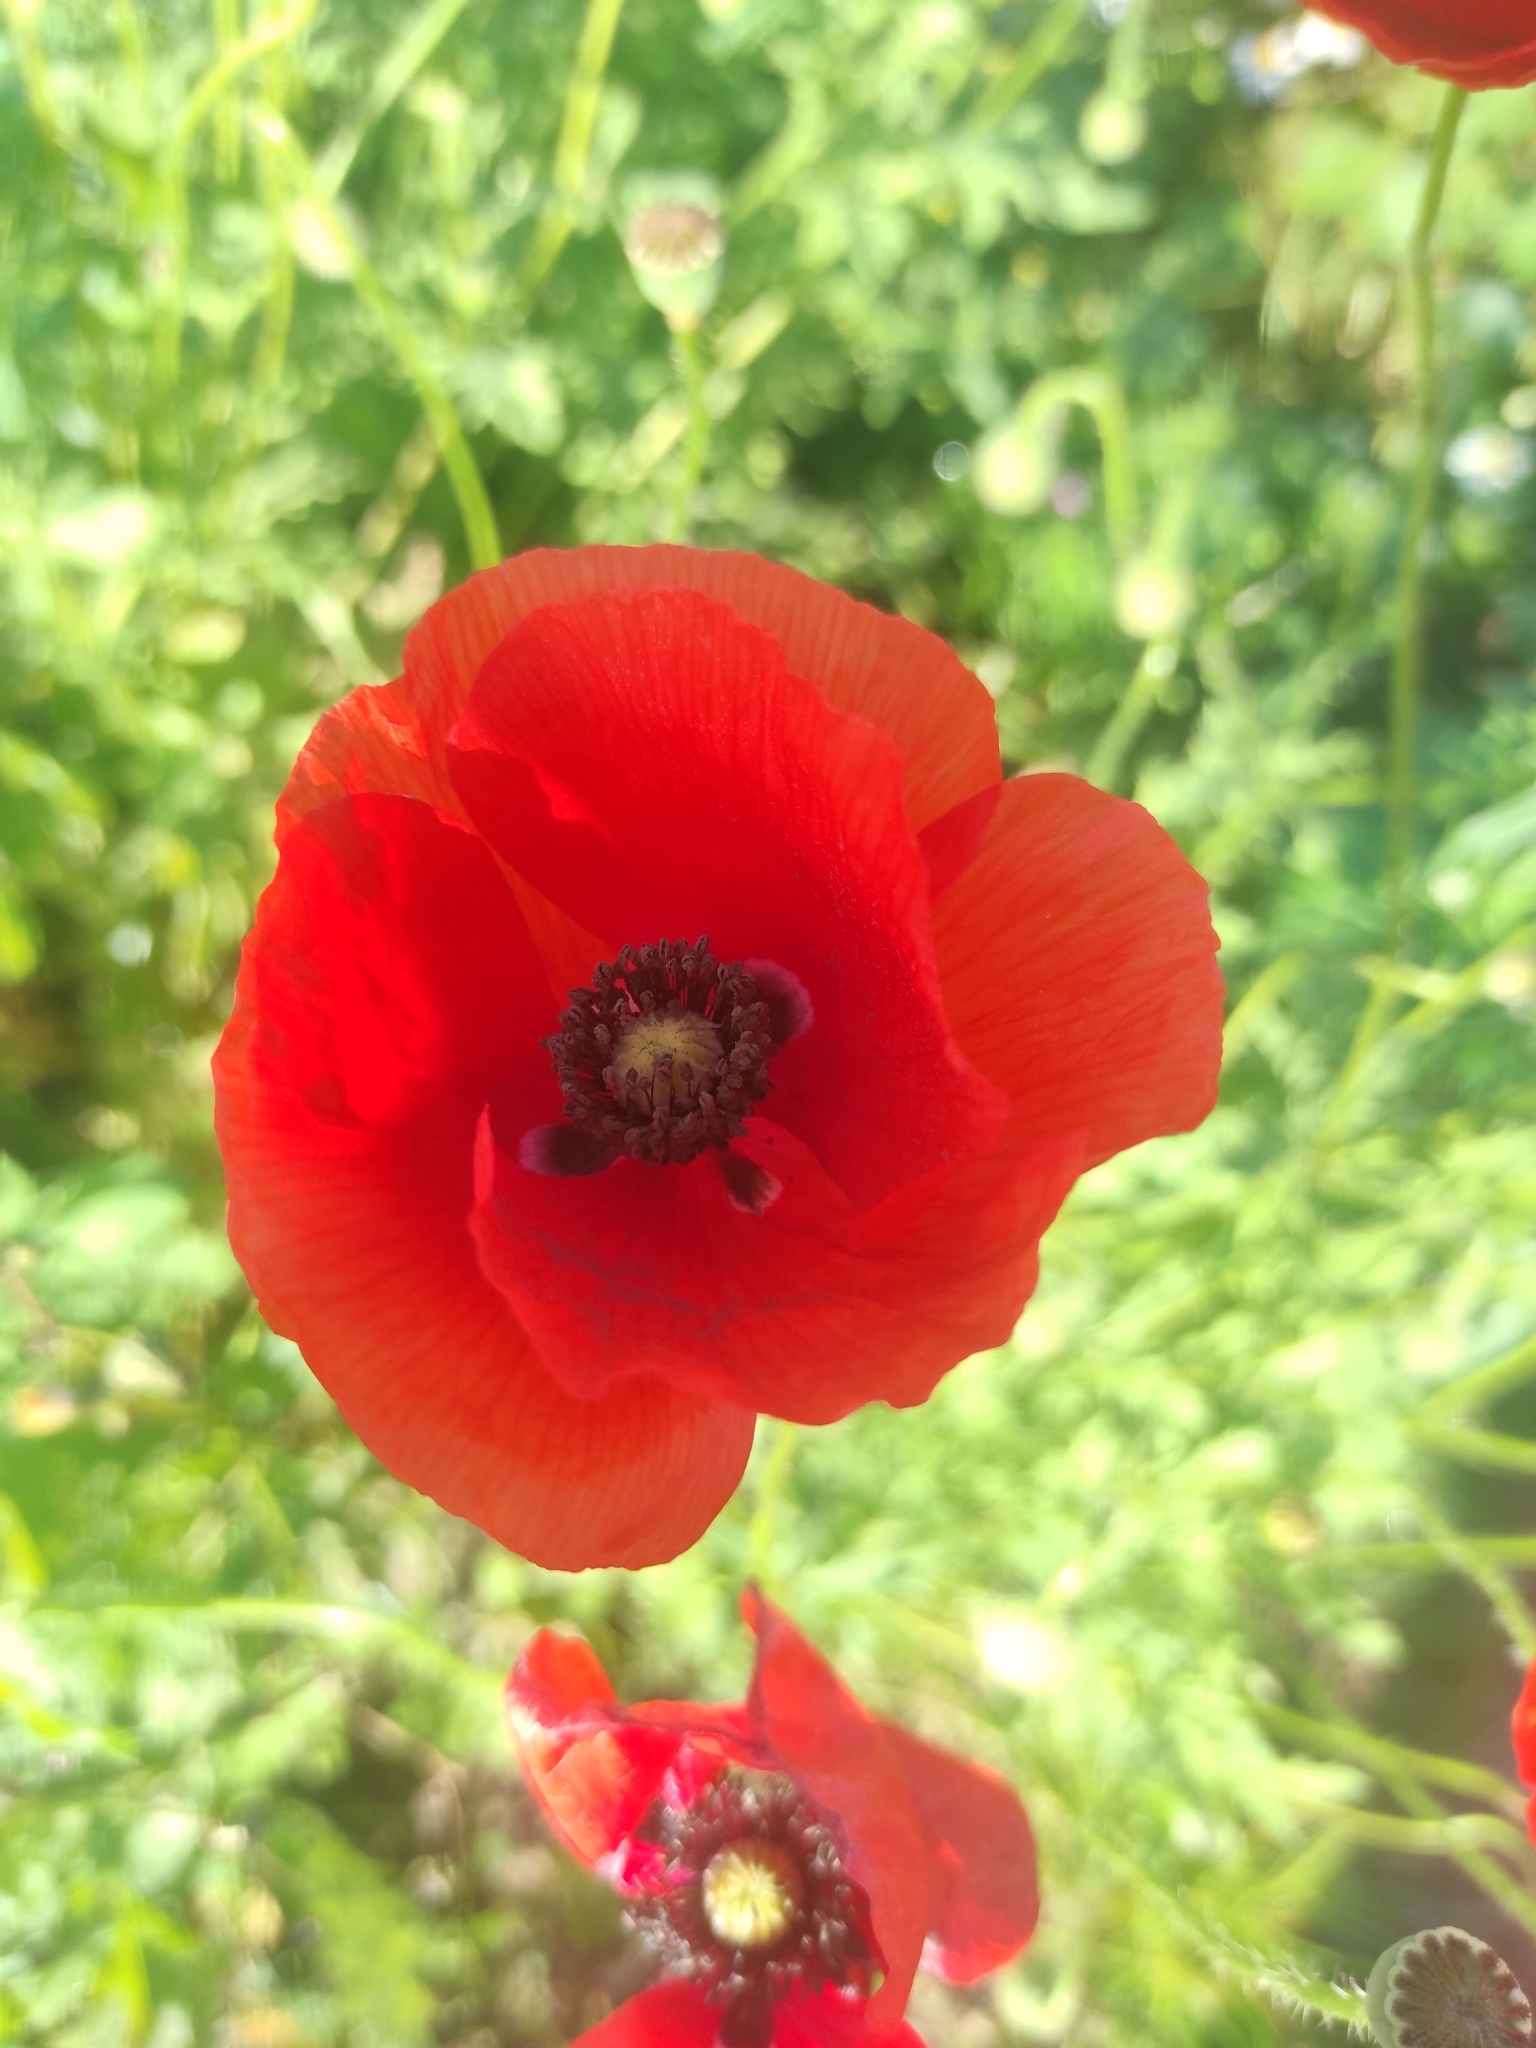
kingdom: Plantae
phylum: Tracheophyta
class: Magnoliopsida
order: Ranunculales
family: Papaveraceae
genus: Papaver
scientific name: Papaver rhoeas
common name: Corn poppy
